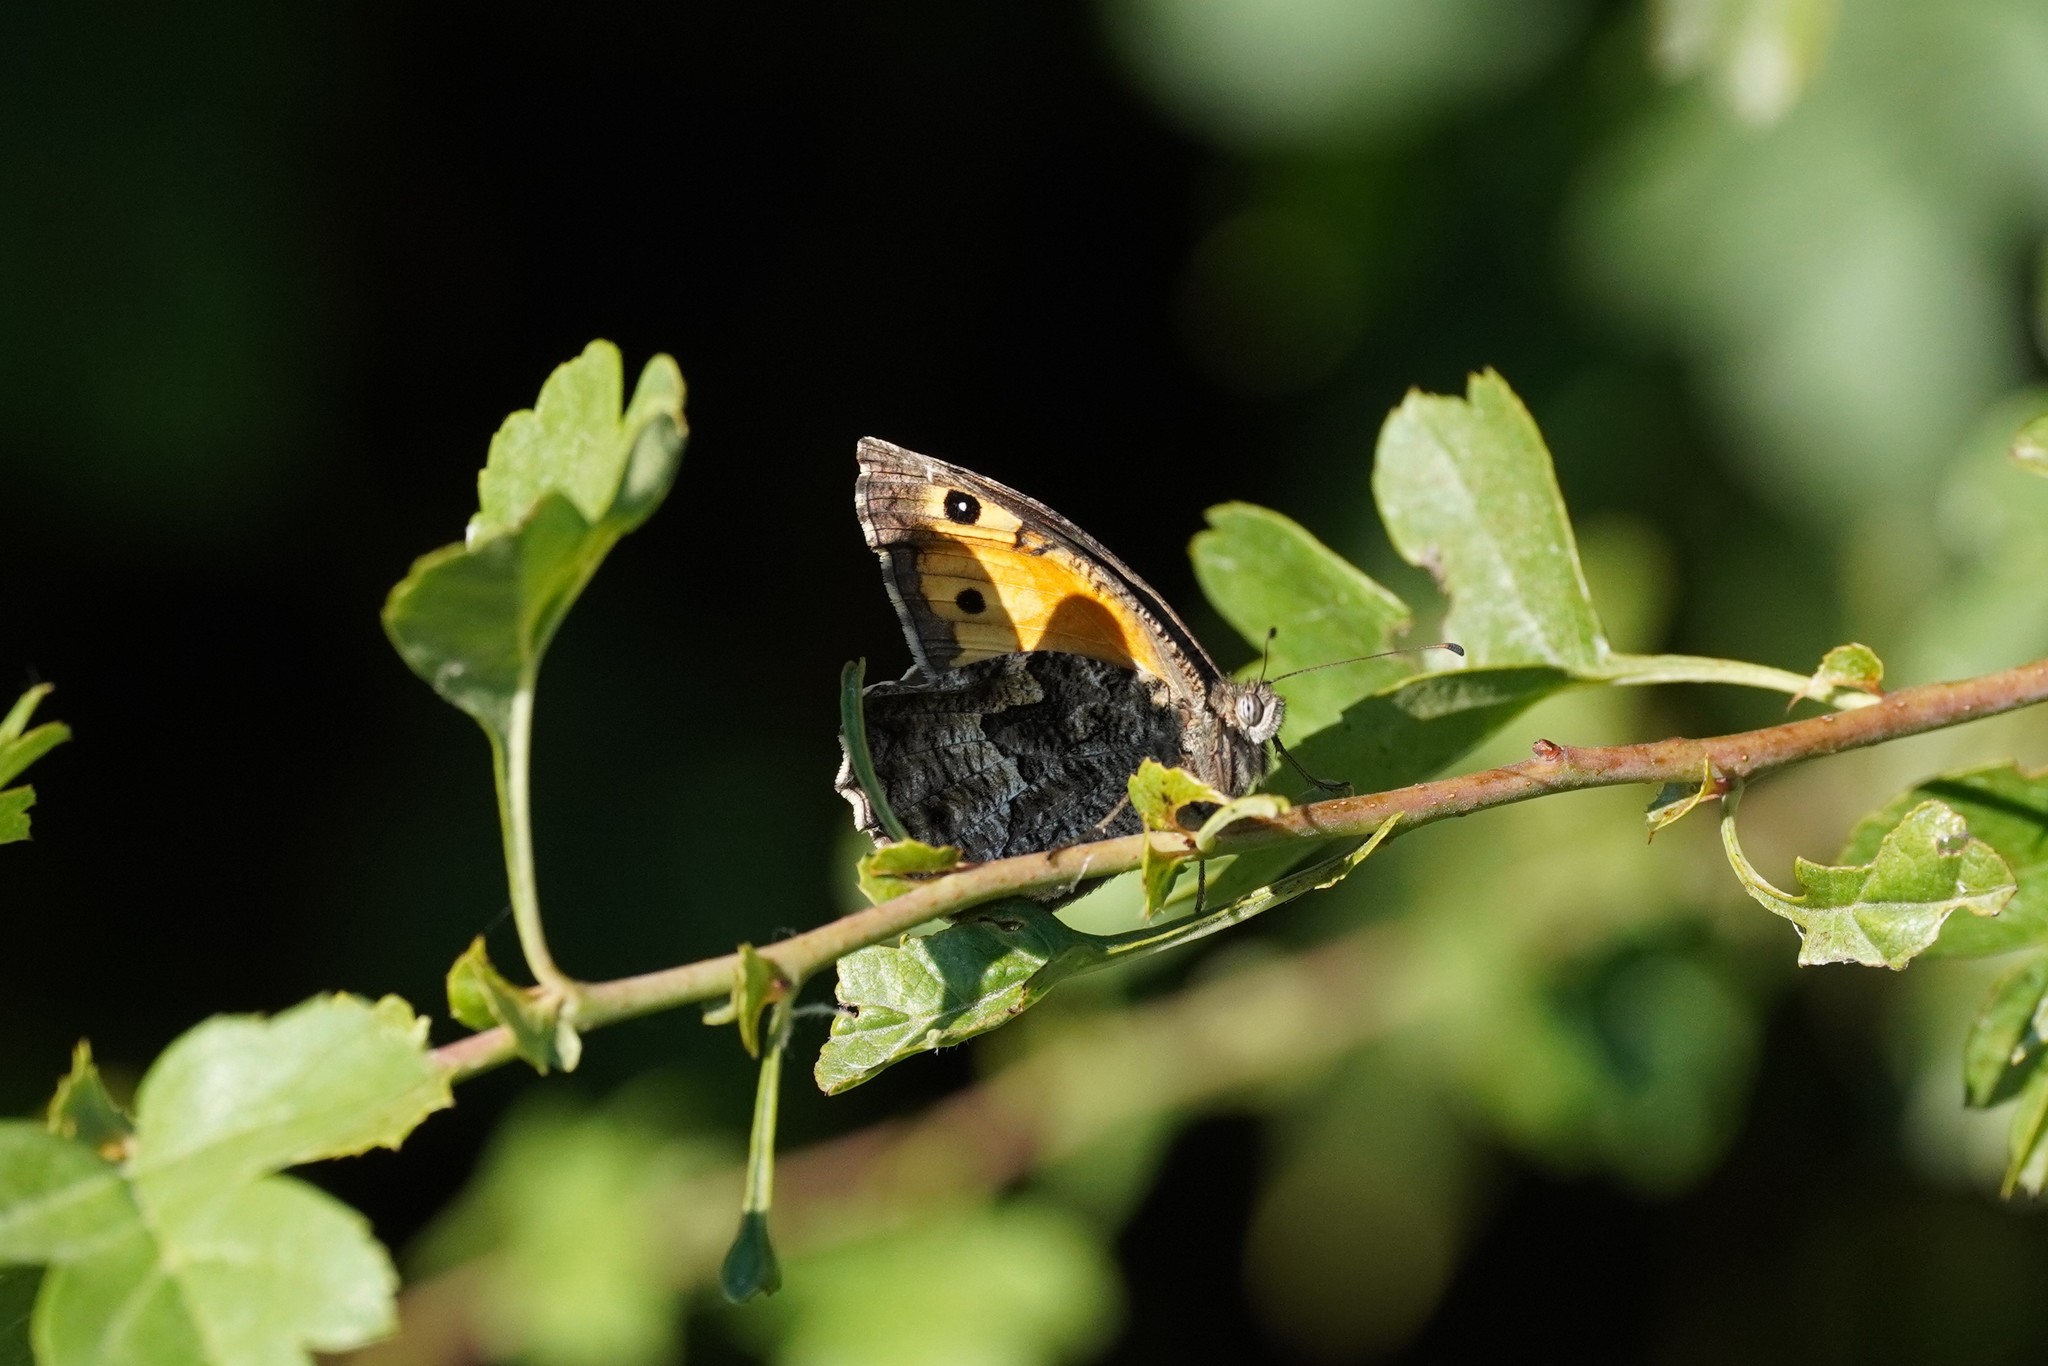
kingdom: Animalia
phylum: Arthropoda
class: Insecta
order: Lepidoptera
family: Nymphalidae
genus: Hipparchia
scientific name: Hipparchia semele
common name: Grayling
